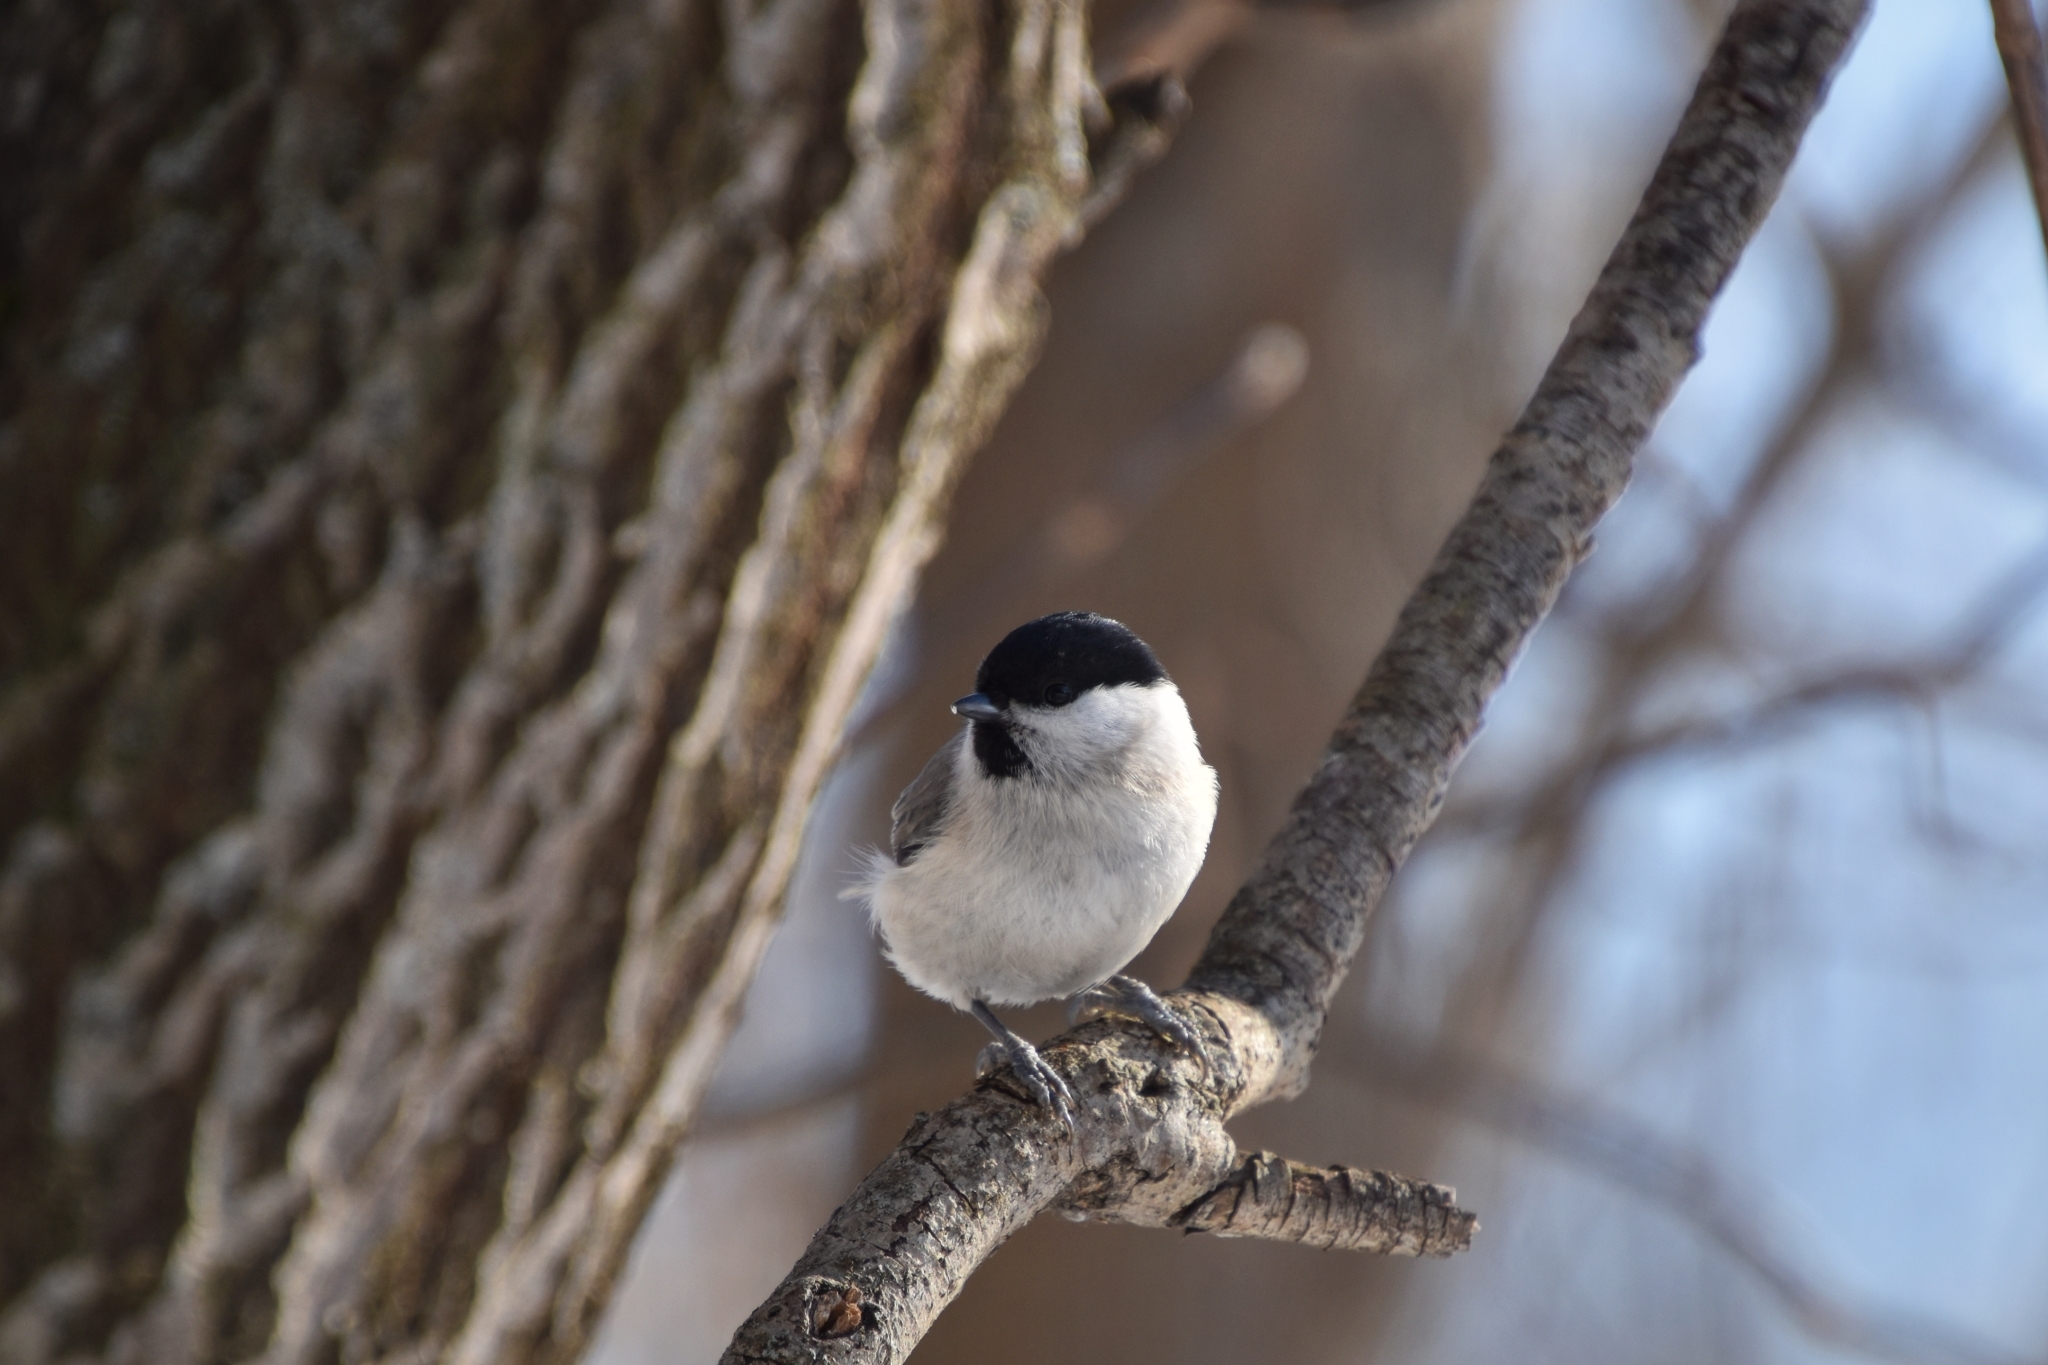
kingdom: Animalia
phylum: Chordata
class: Aves
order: Passeriformes
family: Paridae
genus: Poecile
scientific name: Poecile palustris
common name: Marsh tit
